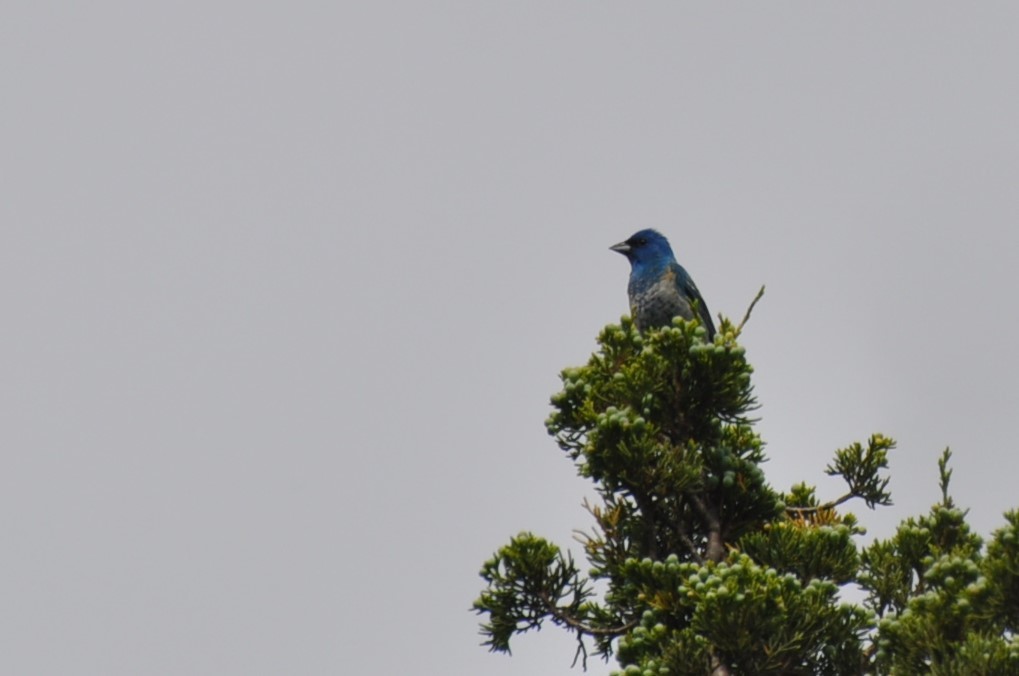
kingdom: Animalia
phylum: Chordata
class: Aves
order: Passeriformes
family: Cardinalidae
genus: Passerina
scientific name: Passerina cyanea
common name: Indigo bunting
